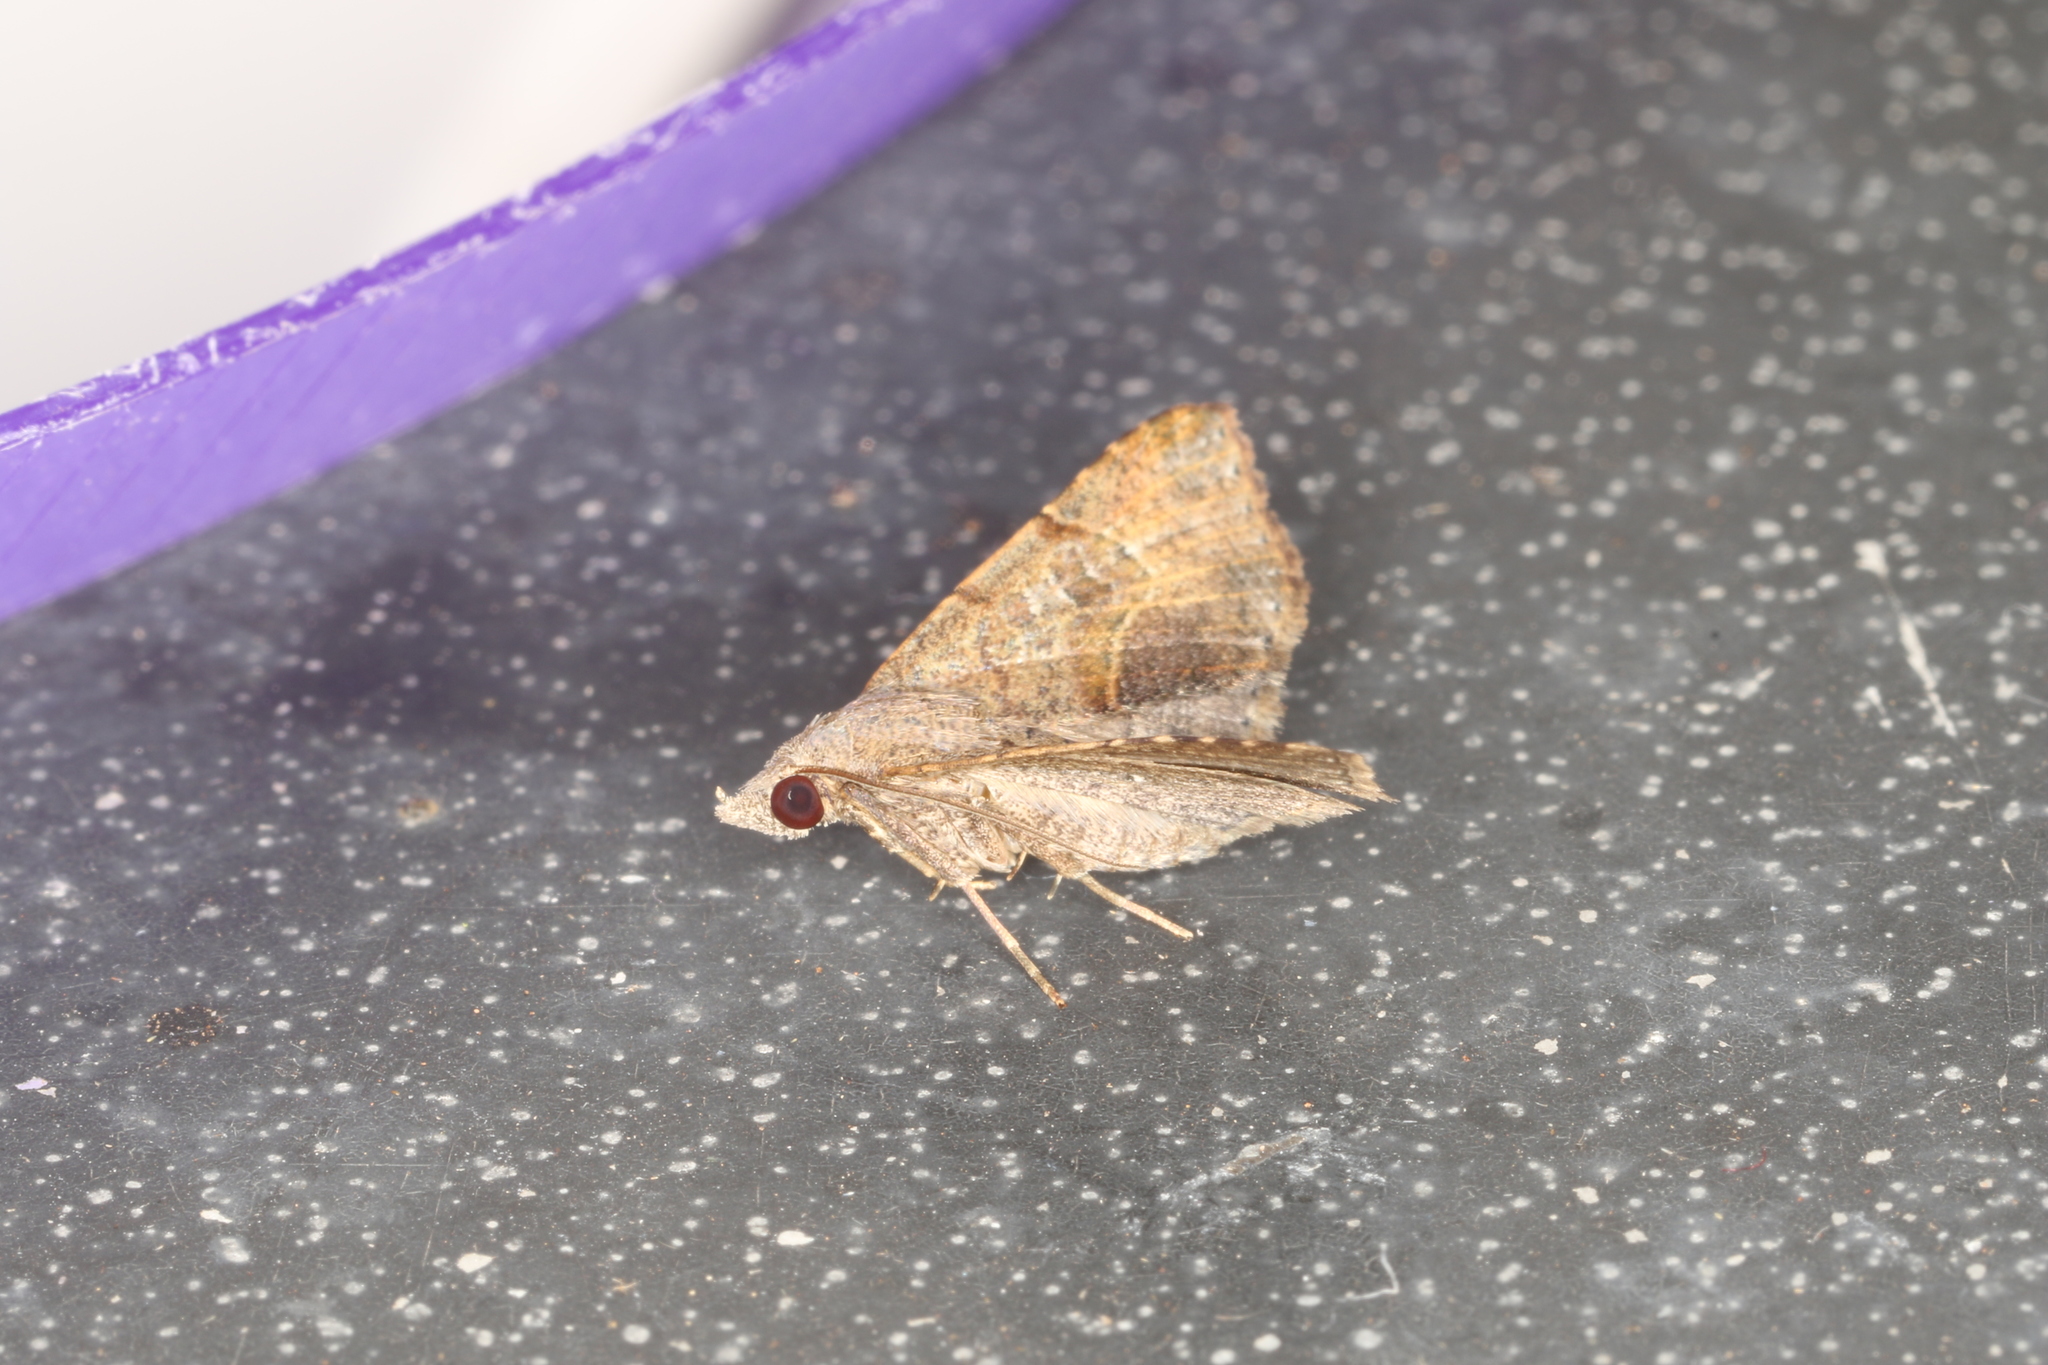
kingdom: Animalia
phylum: Arthropoda
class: Insecta
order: Lepidoptera
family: Erebidae
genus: Rhesalides
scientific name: Rhesalides curvata
